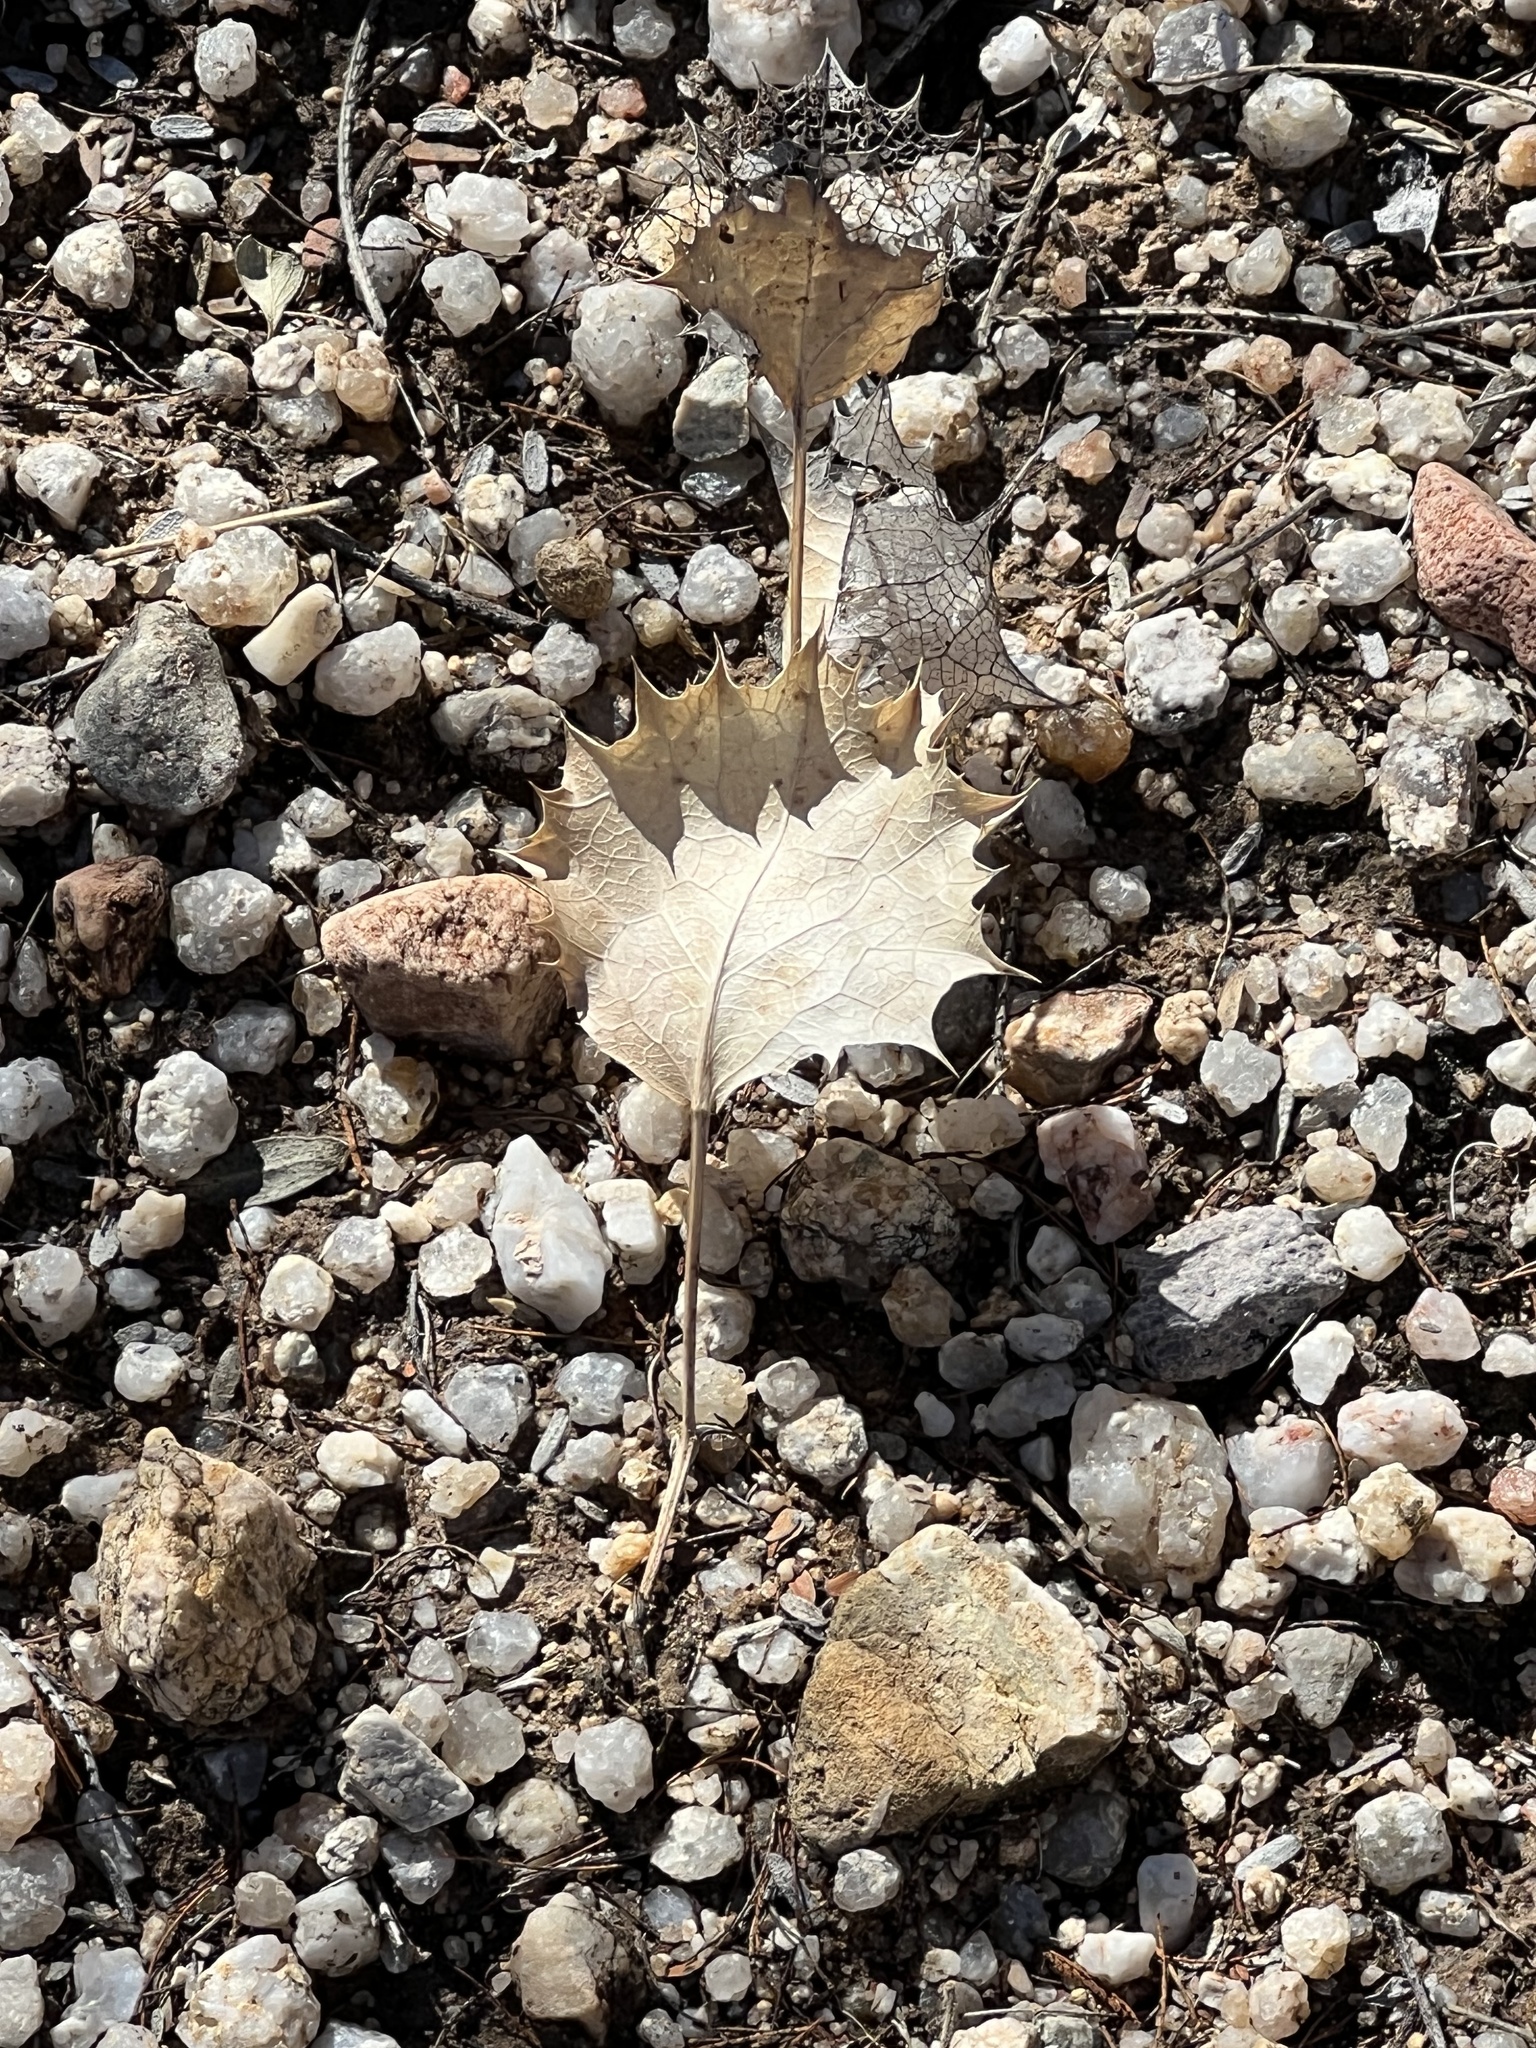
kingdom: Plantae
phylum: Tracheophyta
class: Magnoliopsida
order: Asterales
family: Asteraceae
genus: Acourtia
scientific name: Acourtia nana
